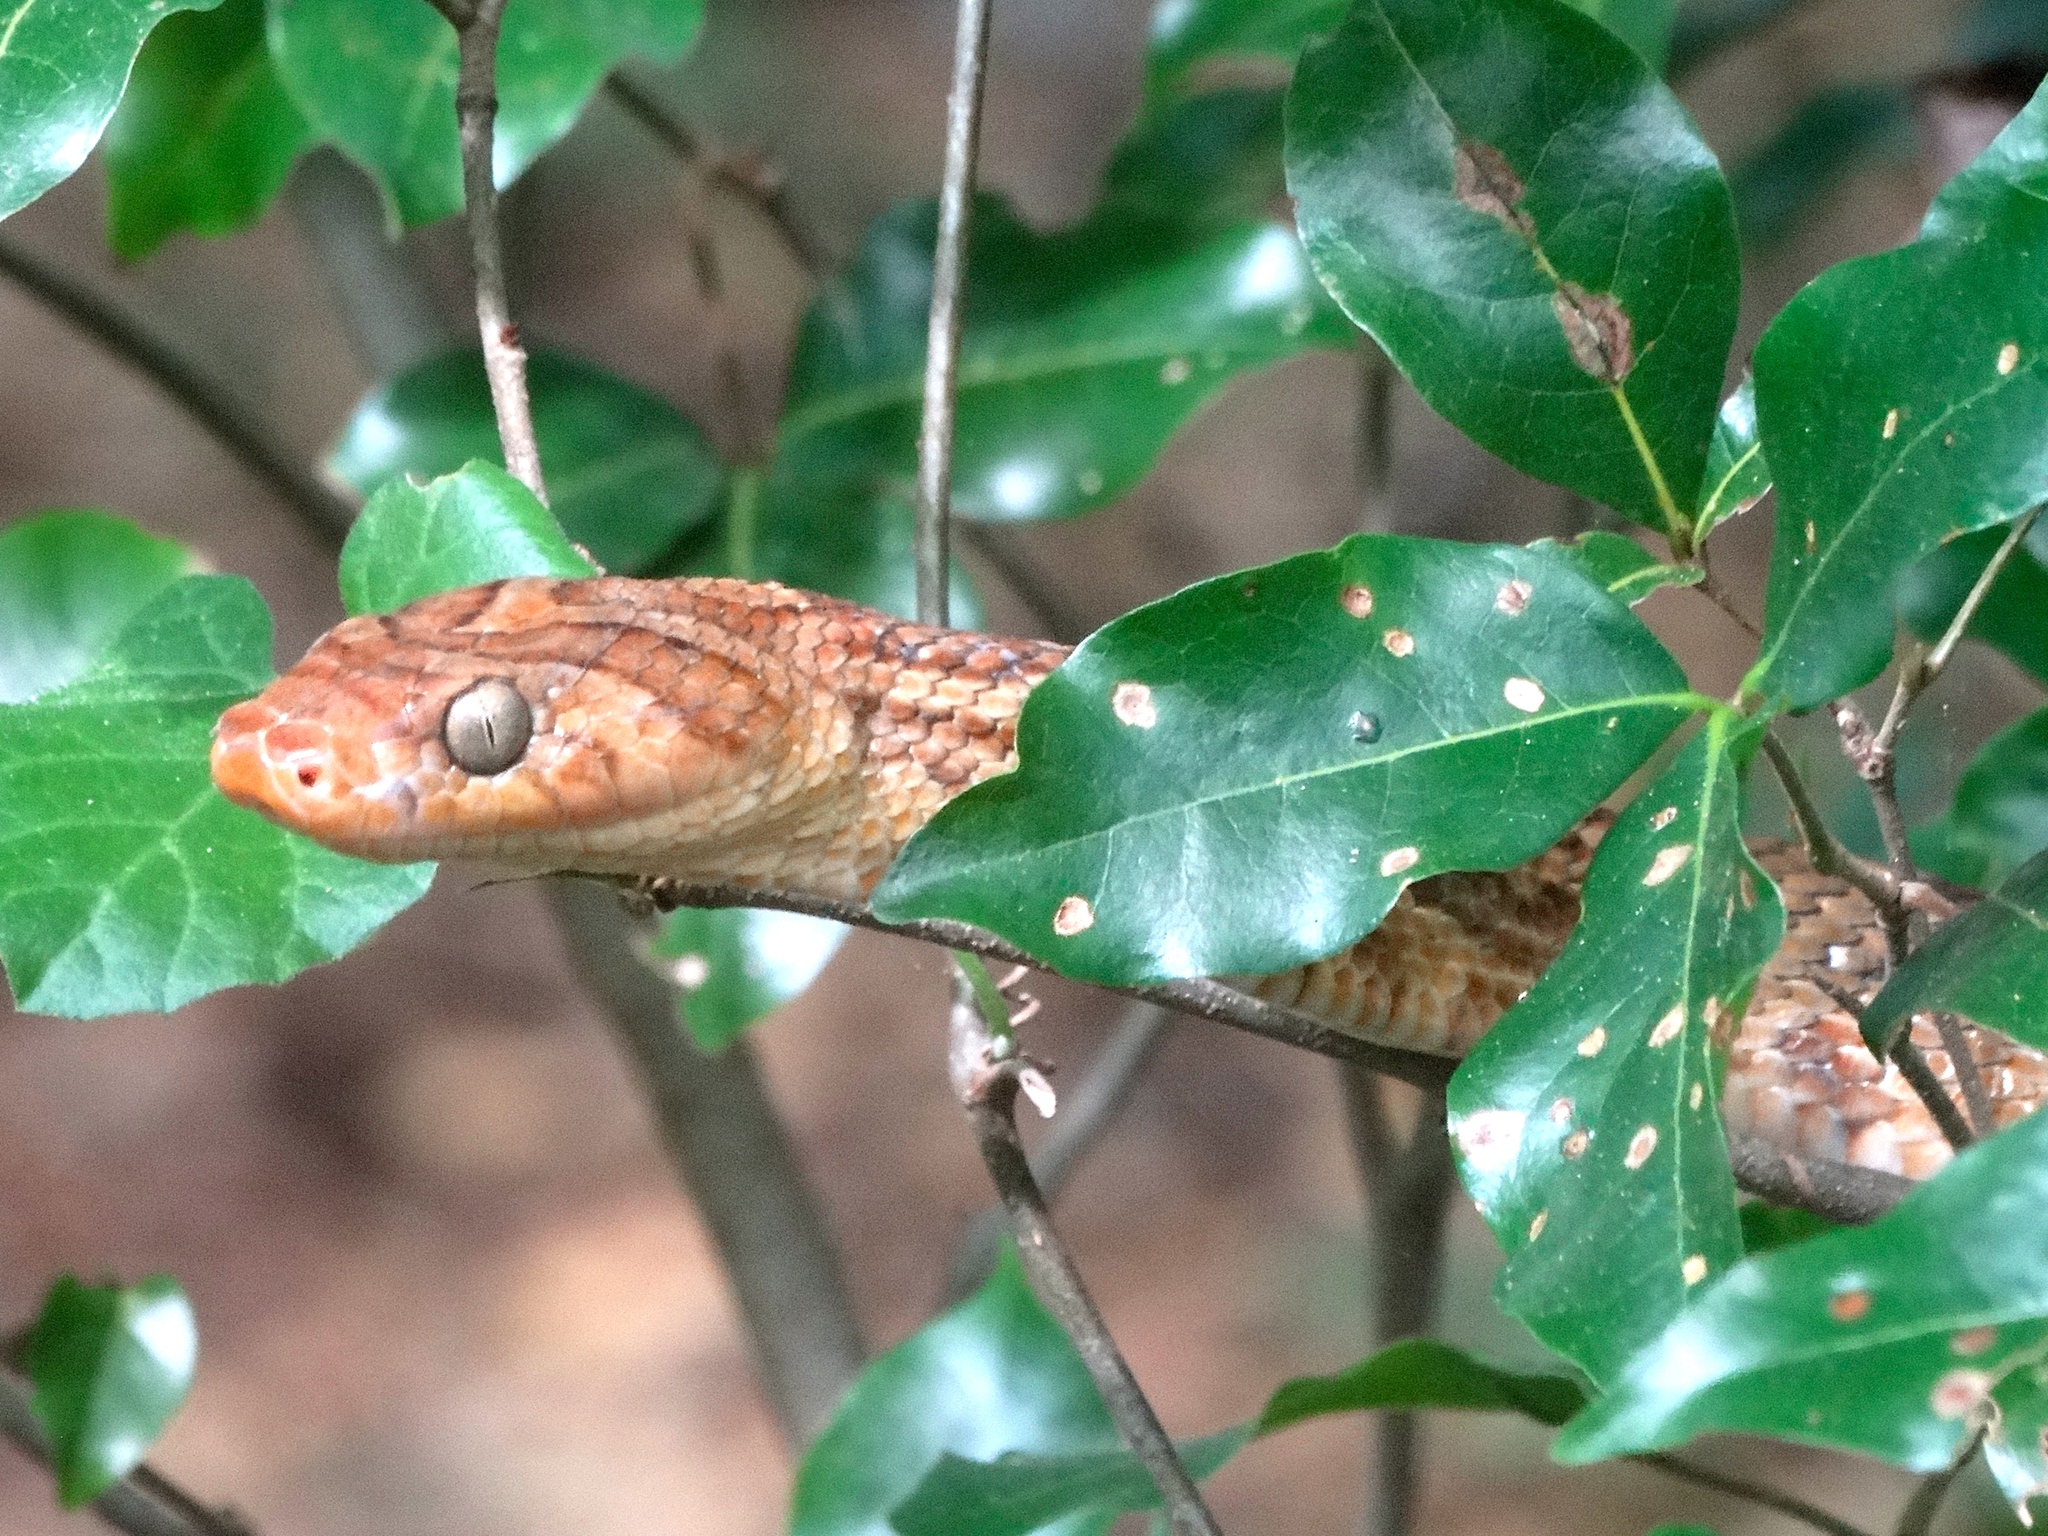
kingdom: Animalia
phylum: Chordata
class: Squamata
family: Colubridae
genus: Trimorphodon
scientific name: Trimorphodon paucimaculatus
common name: Sinaloan lyresnake
